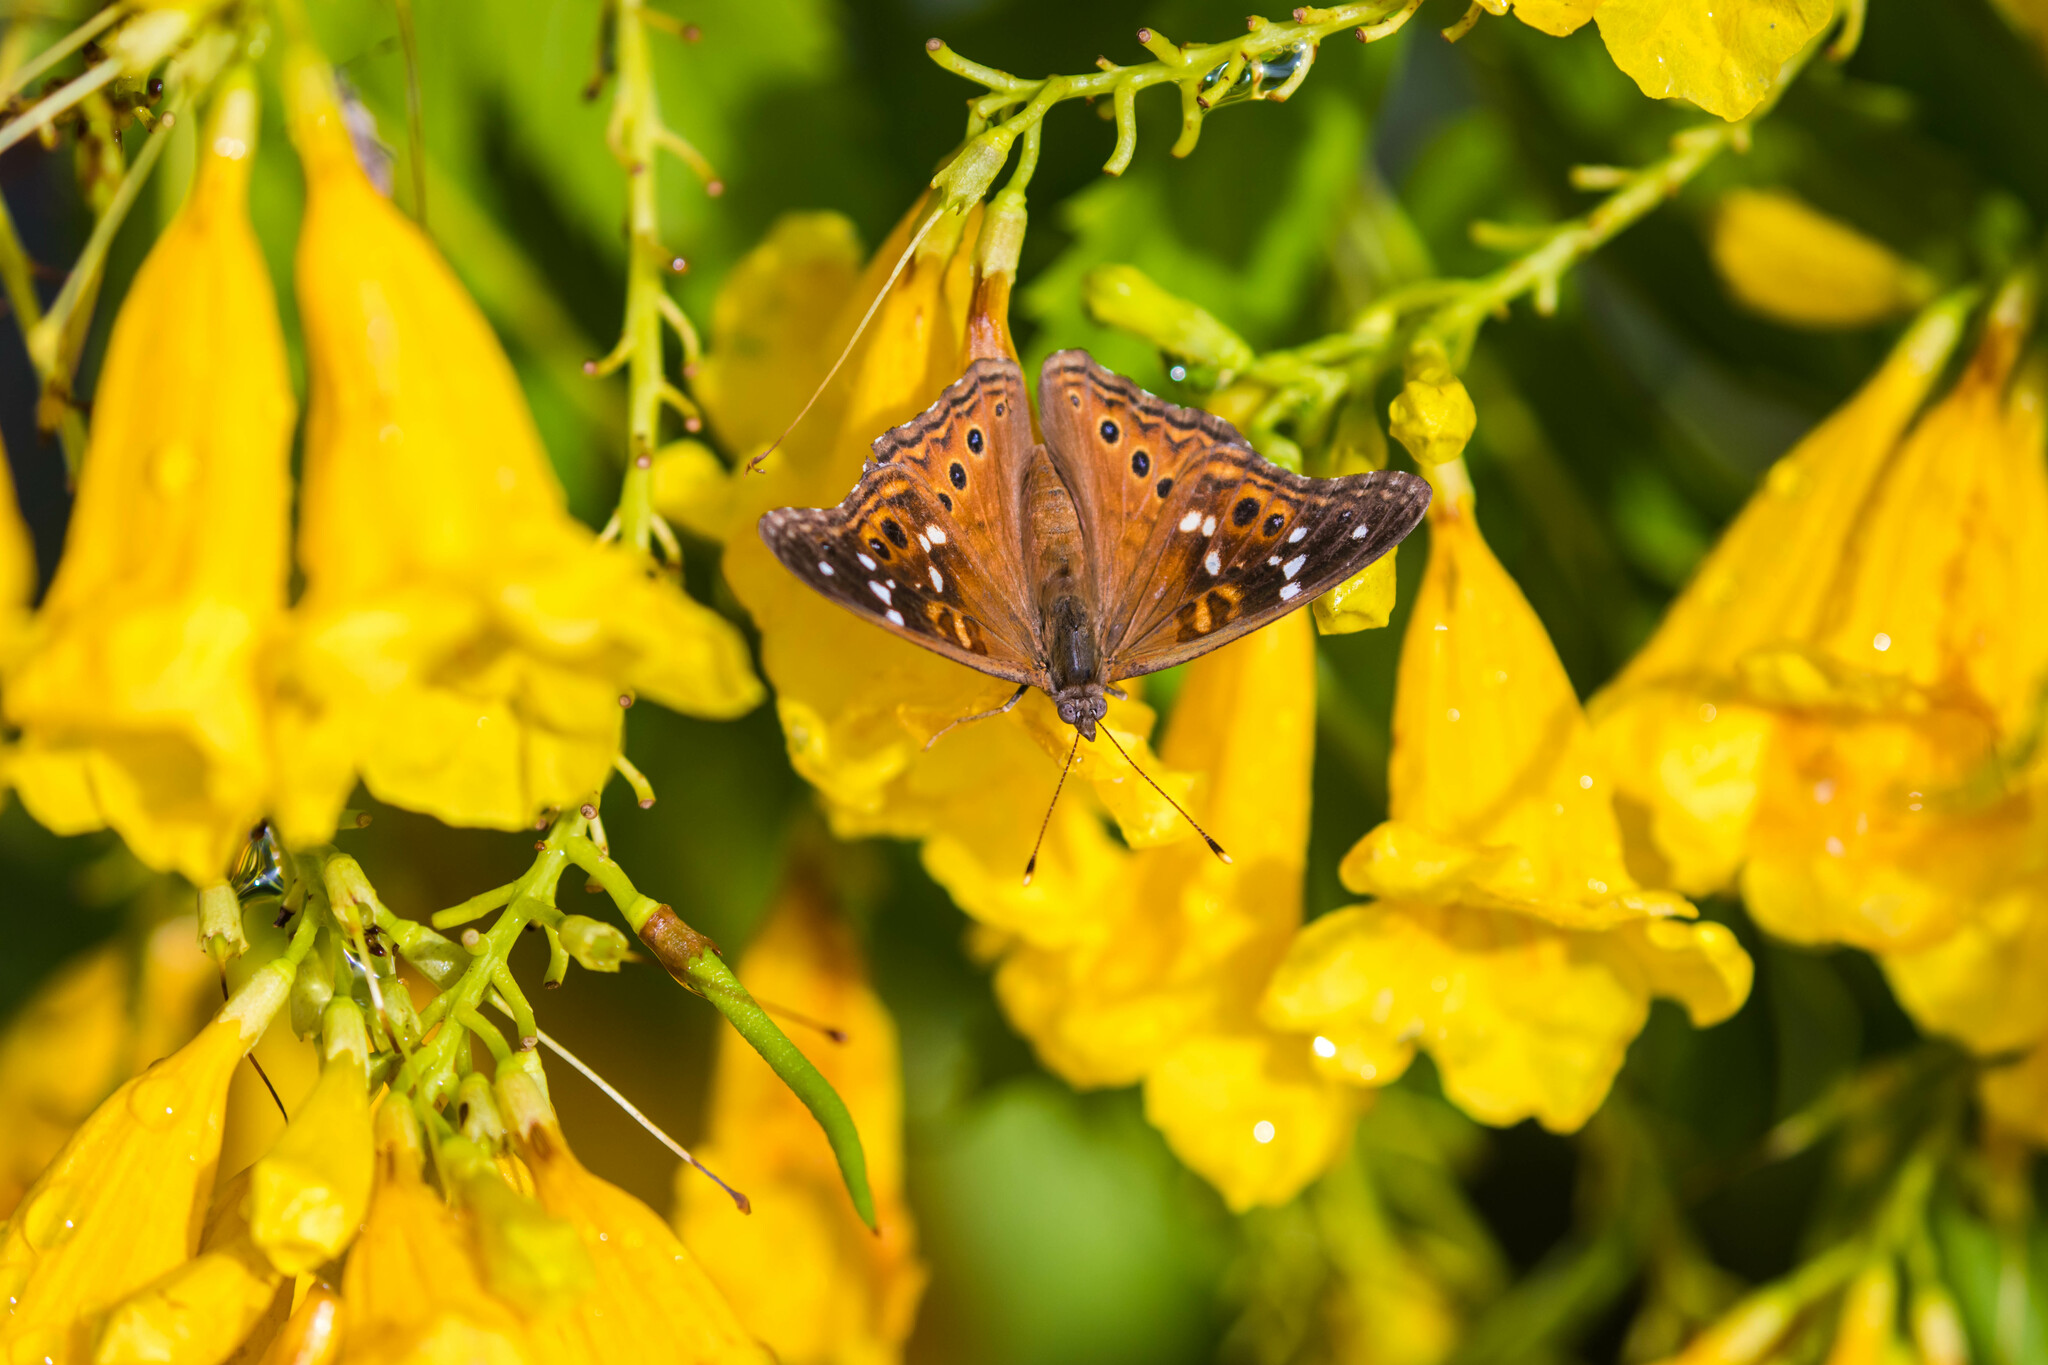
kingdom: Animalia
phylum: Arthropoda
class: Insecta
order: Lepidoptera
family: Nymphalidae
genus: Asterocampa
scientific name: Asterocampa leilia
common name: Empress leilia
